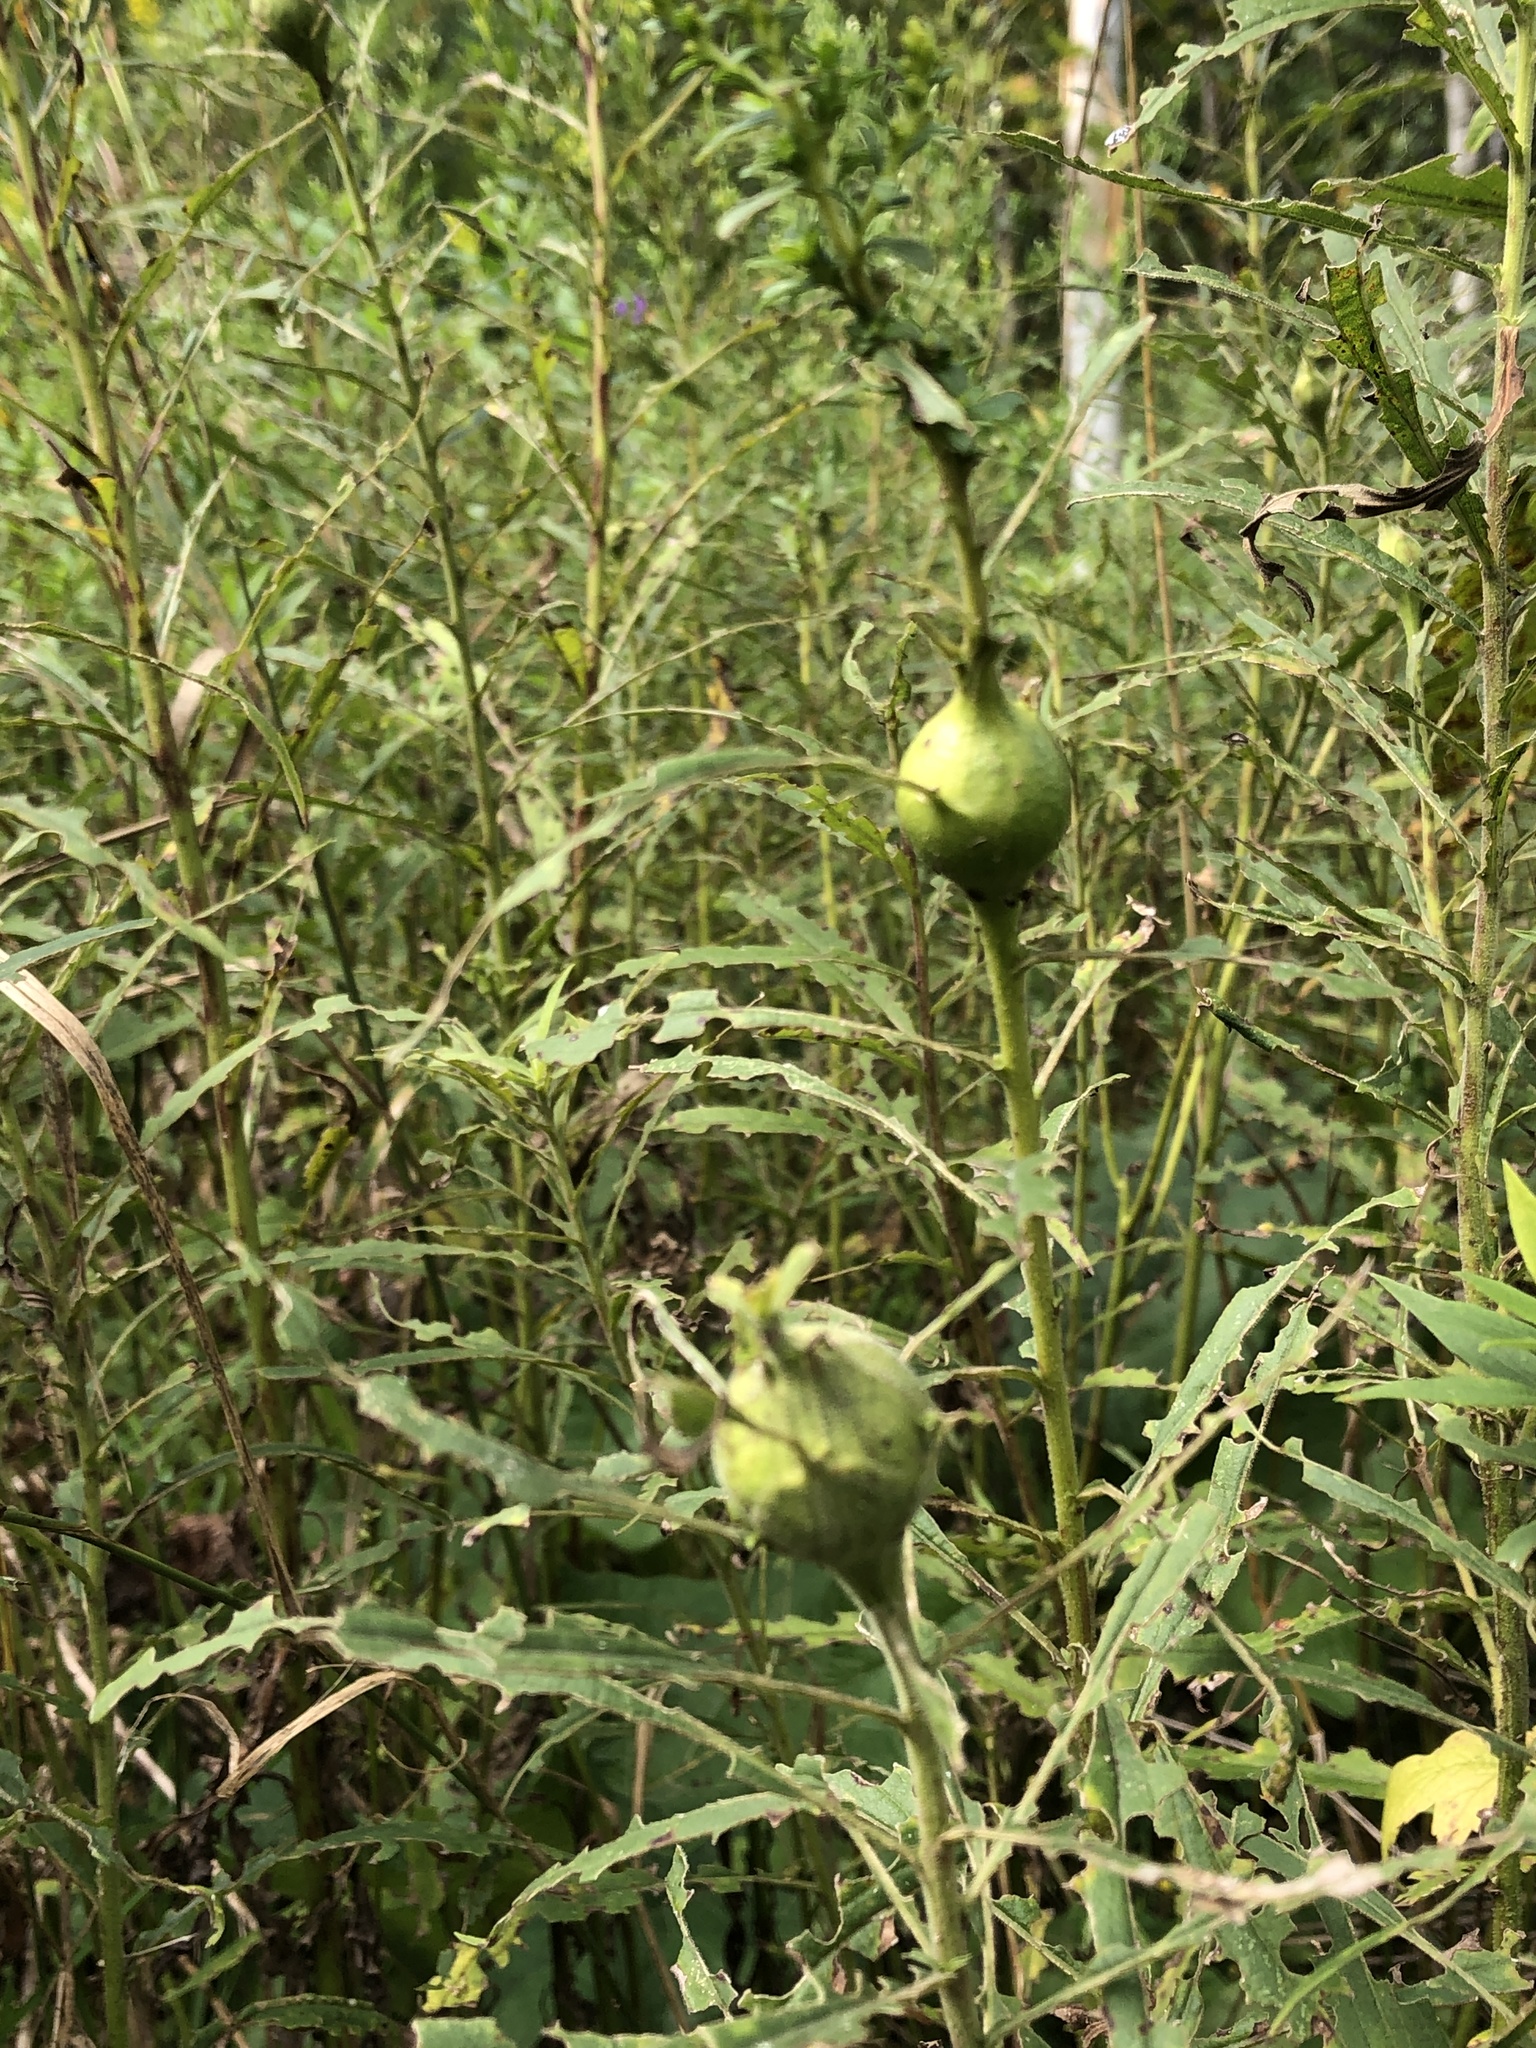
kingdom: Animalia
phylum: Arthropoda
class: Insecta
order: Diptera
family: Tephritidae
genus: Eurosta
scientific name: Eurosta solidaginis
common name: Goldenrod gall fly
